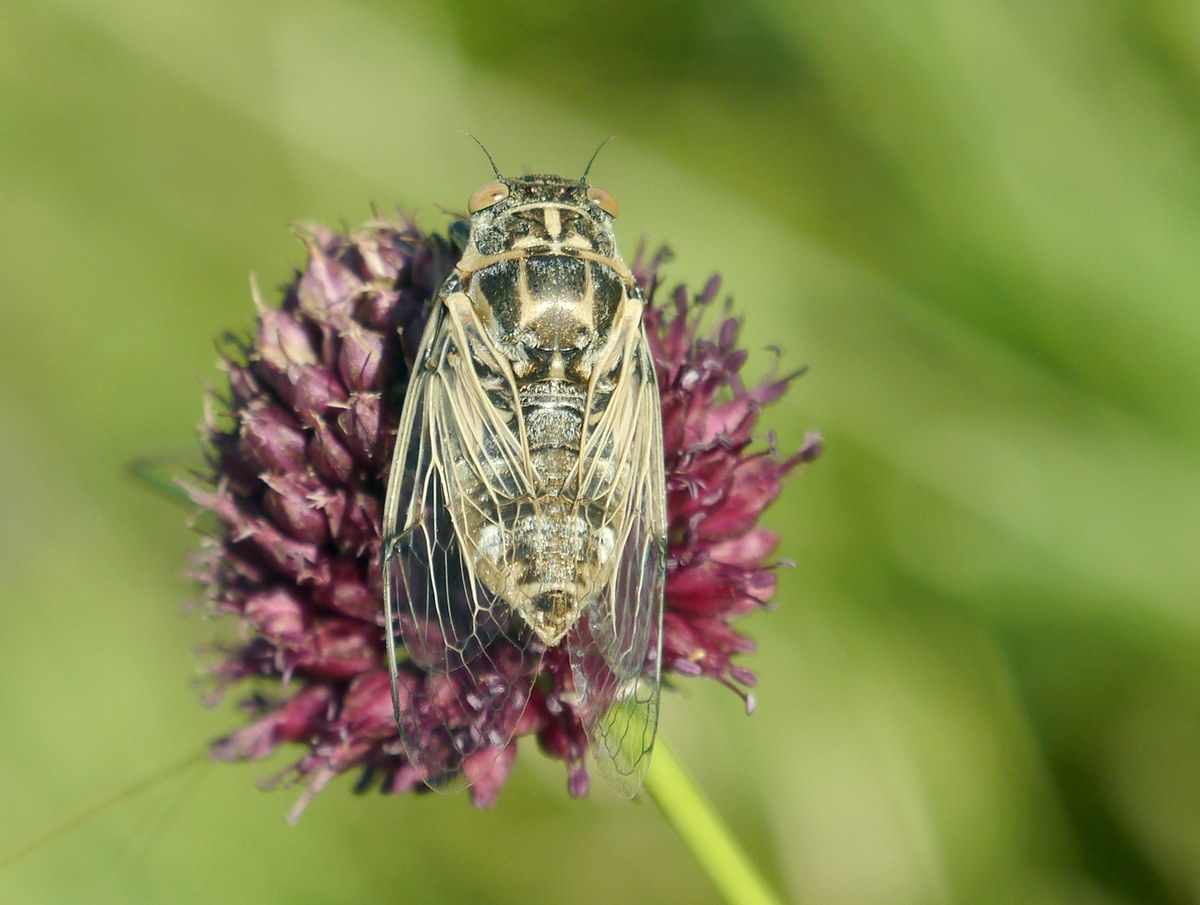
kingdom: Animalia
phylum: Arthropoda
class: Insecta
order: Hemiptera
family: Cicadidae
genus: Cicadatra
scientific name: Cicadatra platyptera
